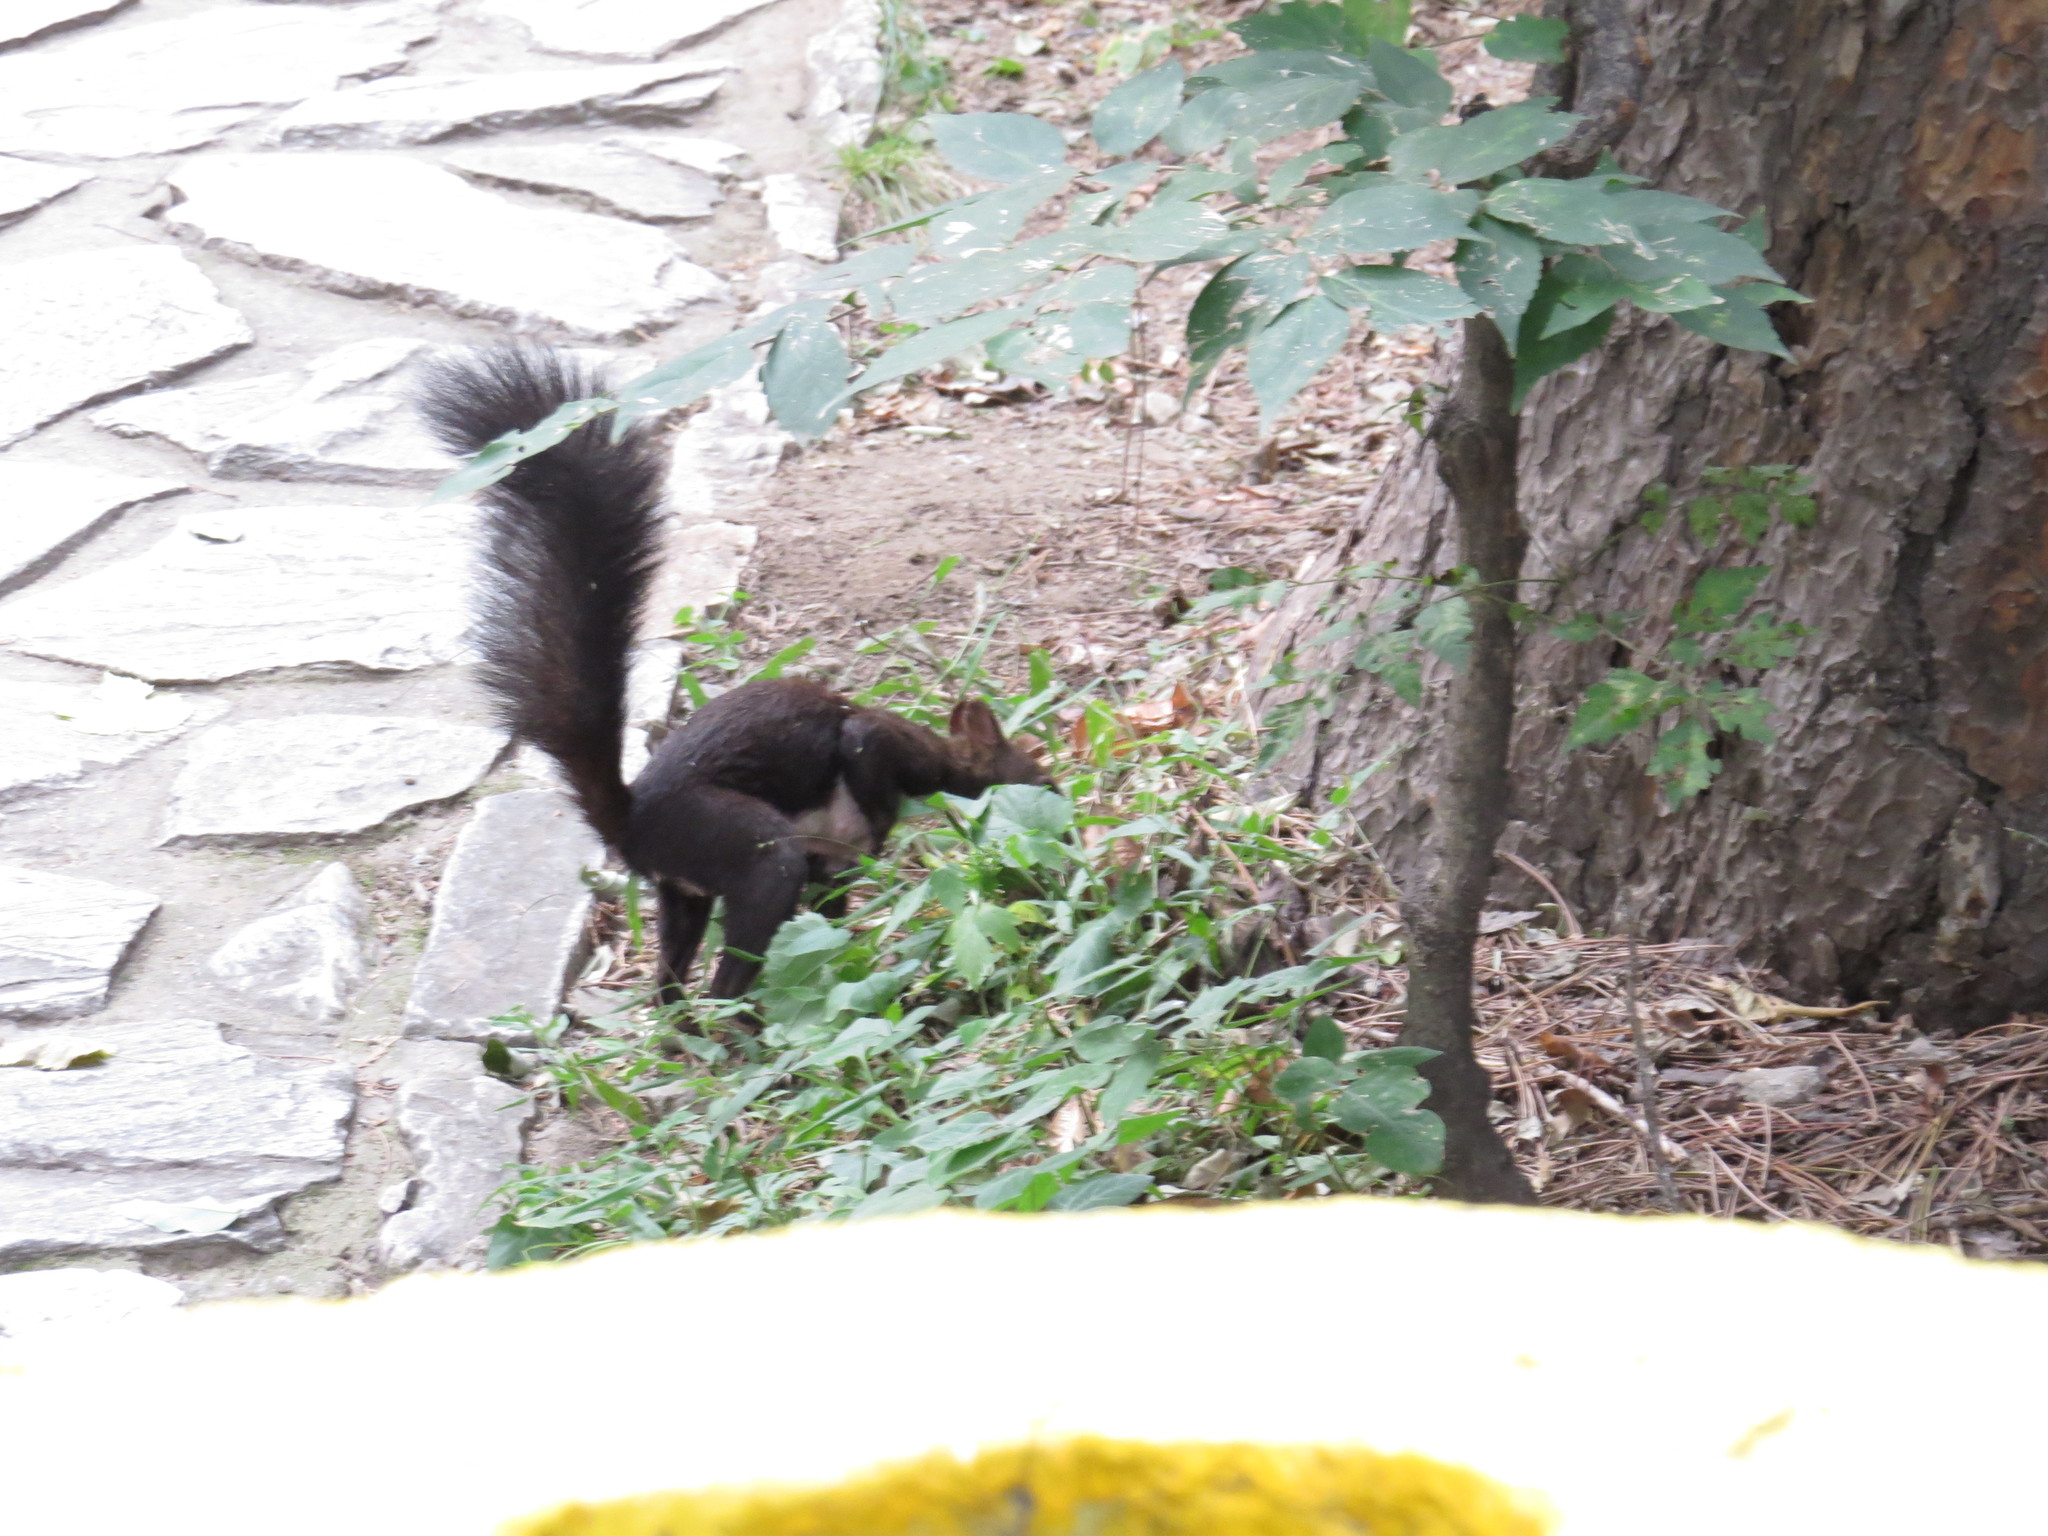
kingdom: Animalia
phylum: Chordata
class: Mammalia
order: Rodentia
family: Sciuridae
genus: Sciurus
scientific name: Sciurus vulgaris
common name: Eurasian red squirrel
